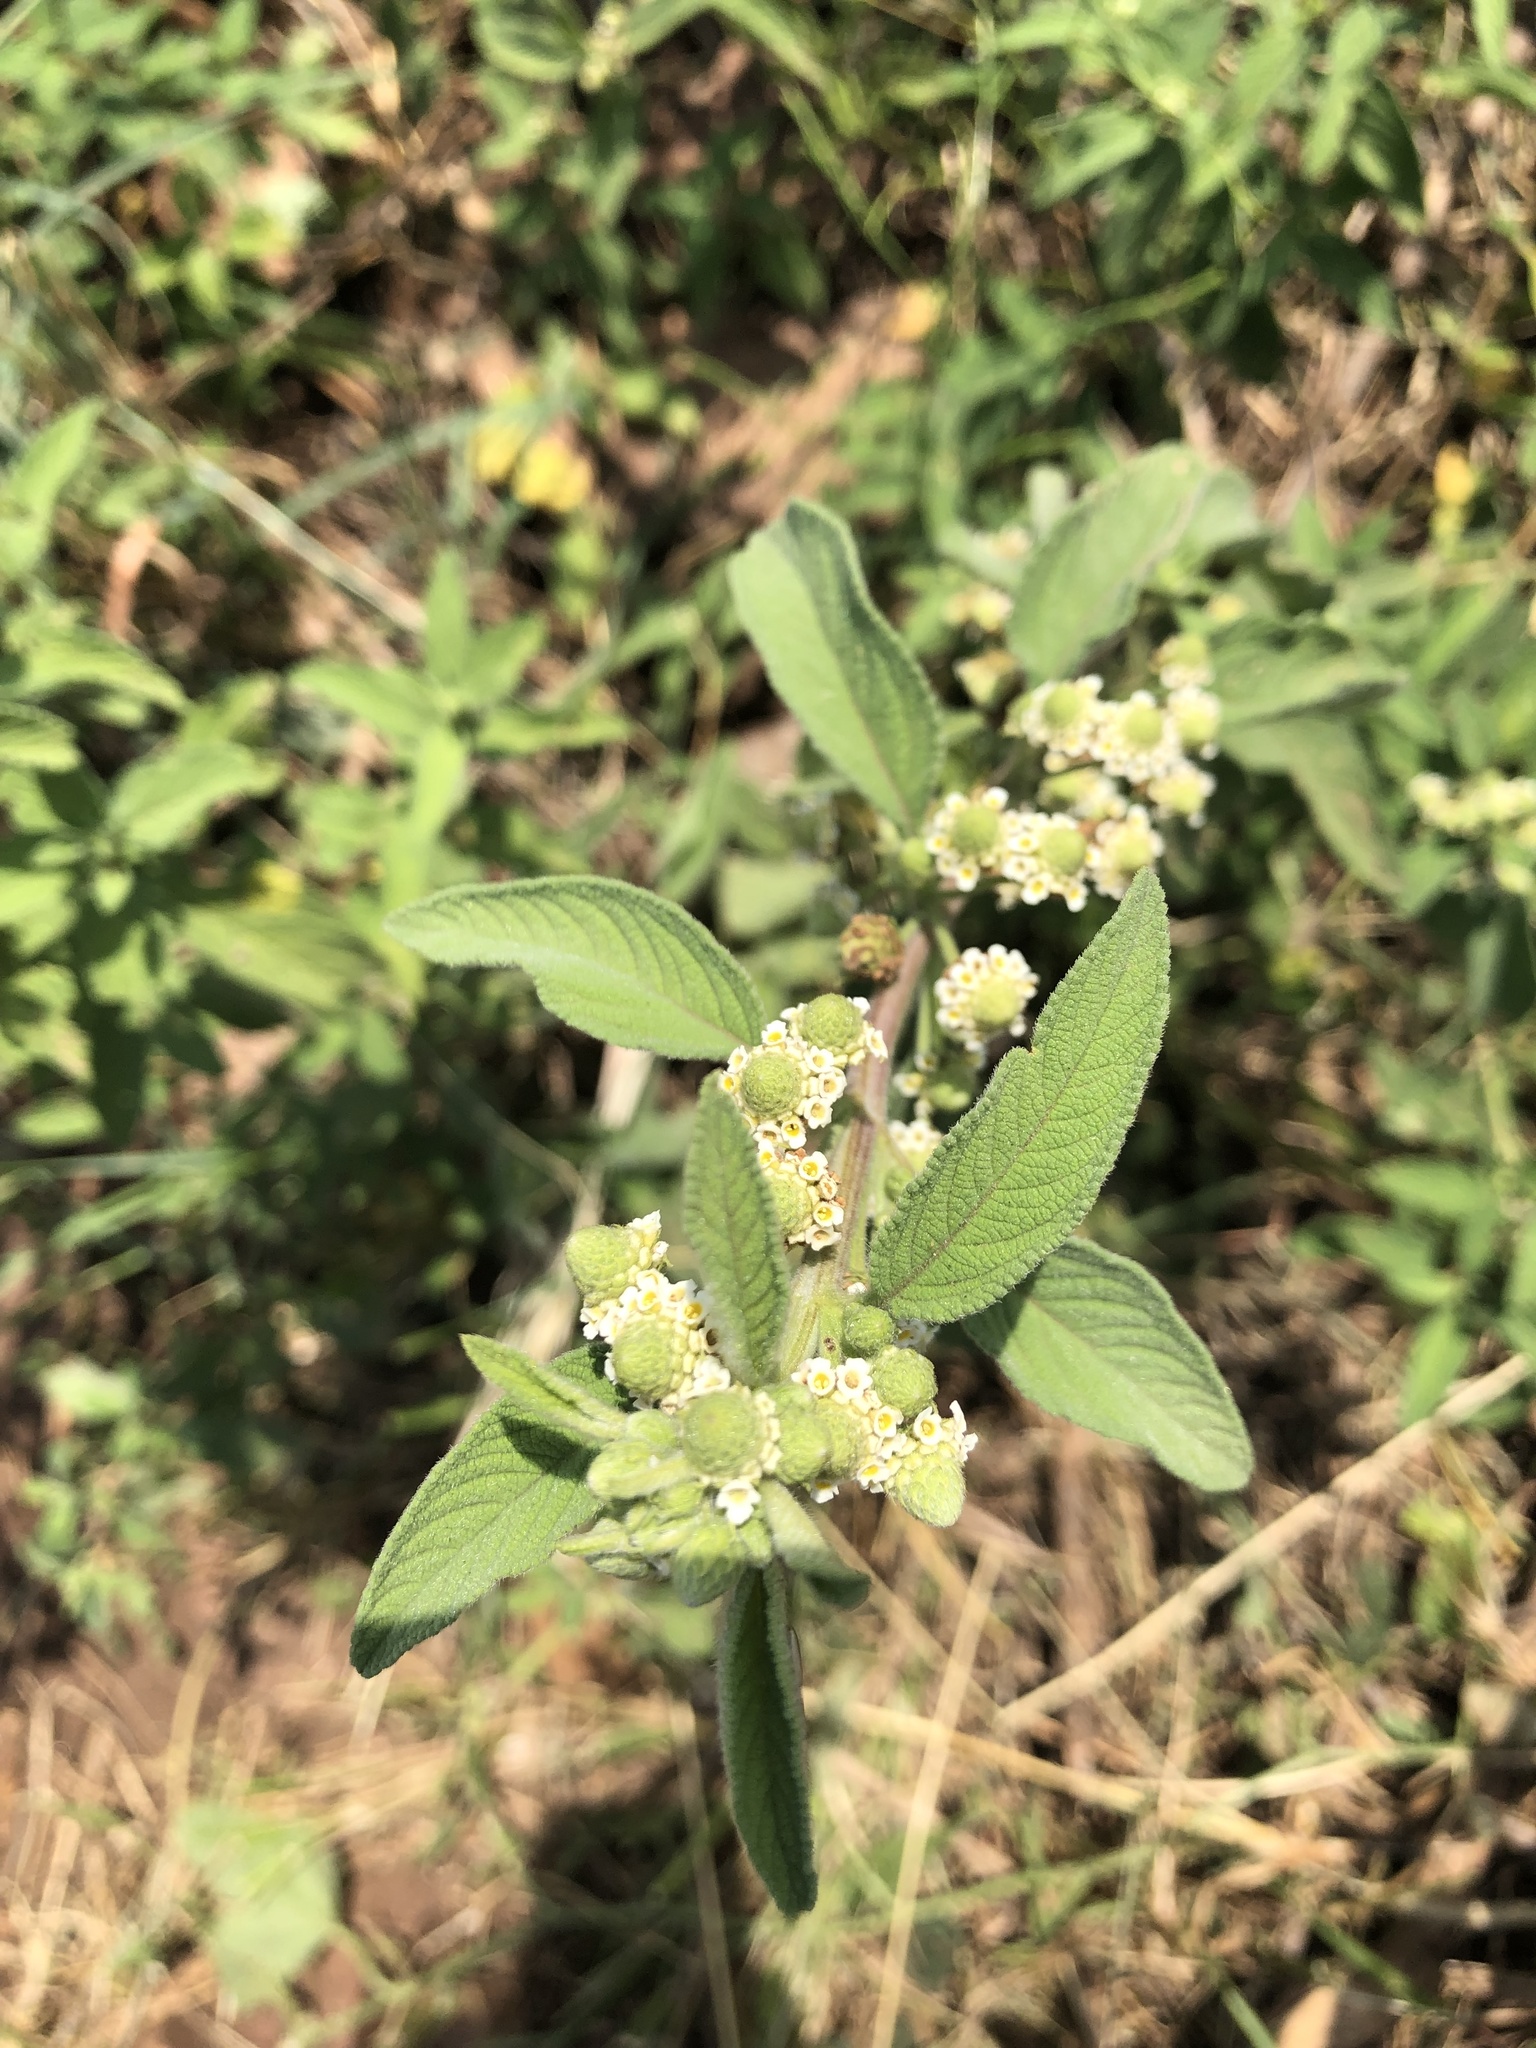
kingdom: Plantae
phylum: Tracheophyta
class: Magnoliopsida
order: Lamiales
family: Verbenaceae
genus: Lippia
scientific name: Lippia javanica
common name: Lemonbush
